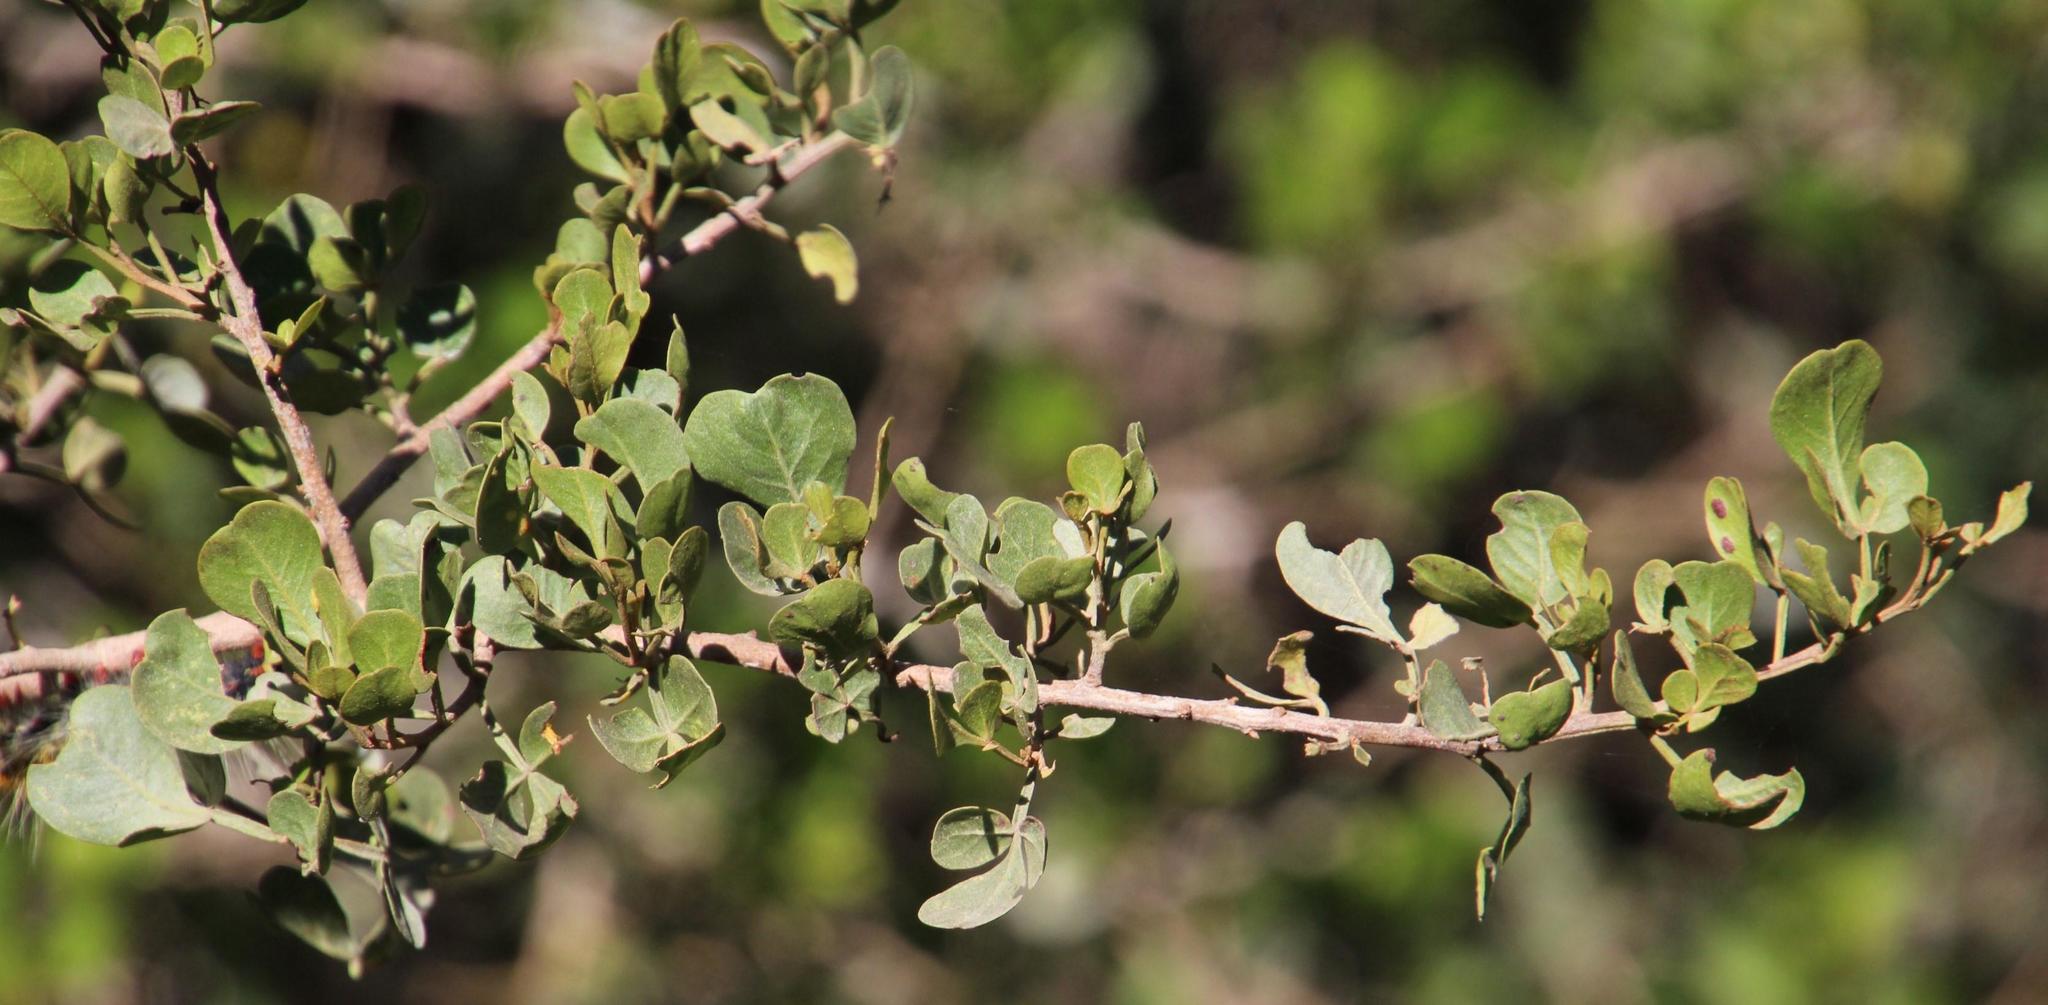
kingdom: Plantae
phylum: Tracheophyta
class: Magnoliopsida
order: Sapindales
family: Anacardiaceae
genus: Searsia
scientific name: Searsia glauca
